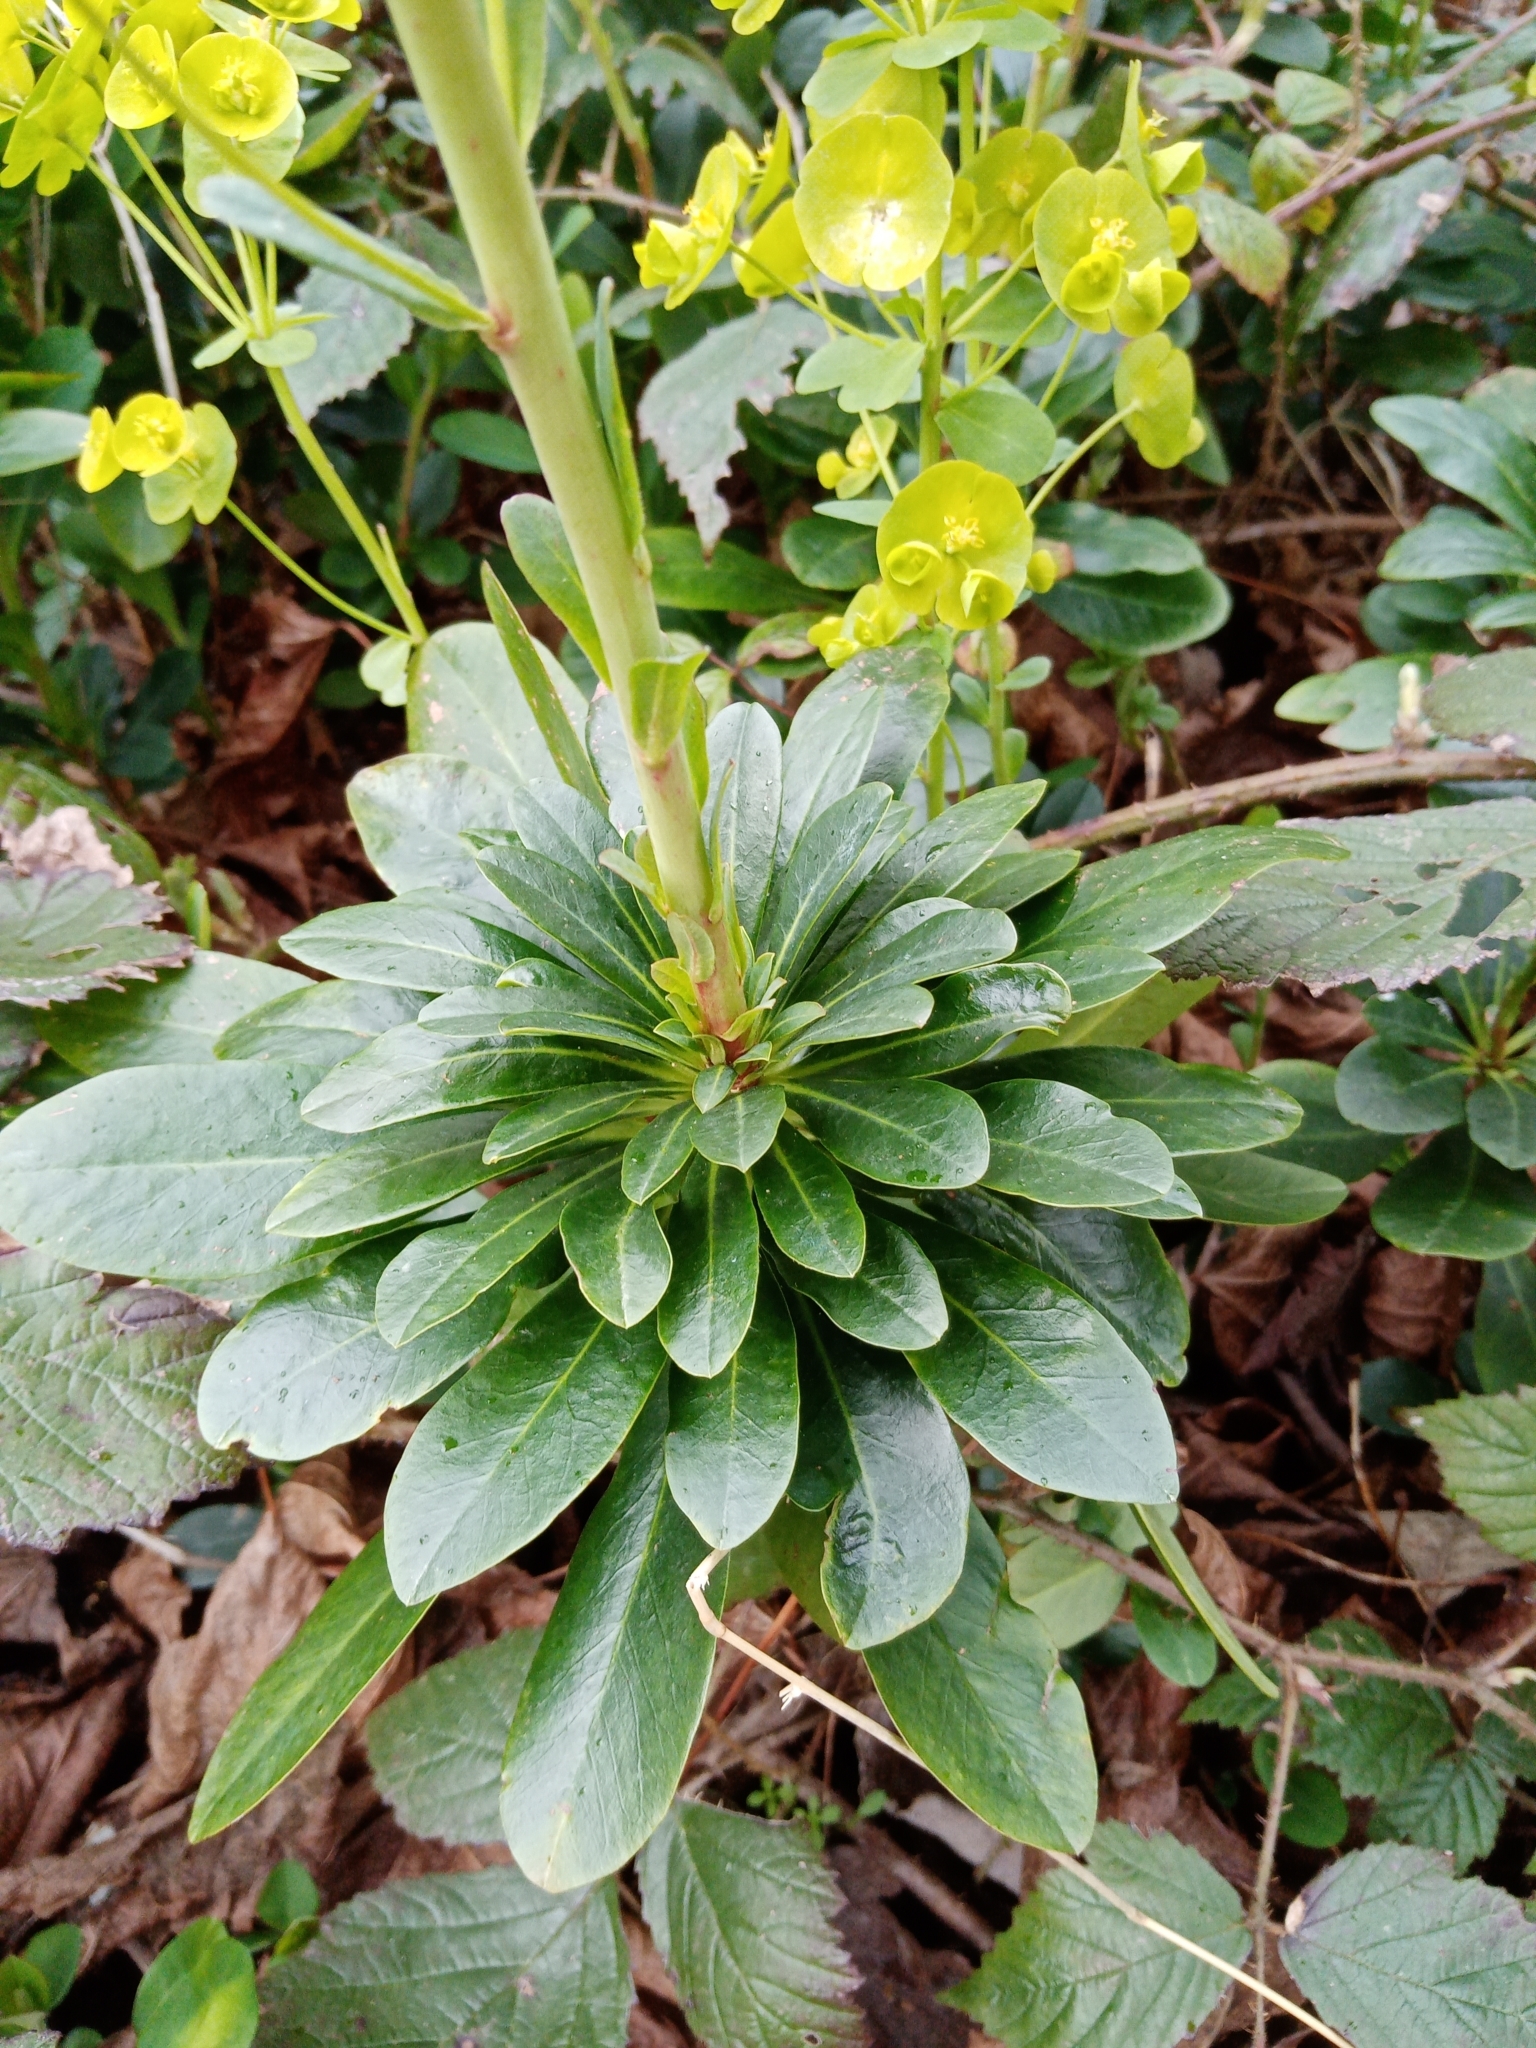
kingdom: Plantae
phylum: Tracheophyta
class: Magnoliopsida
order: Malpighiales
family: Euphorbiaceae
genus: Euphorbia
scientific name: Euphorbia amygdaloides
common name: Wood spurge
